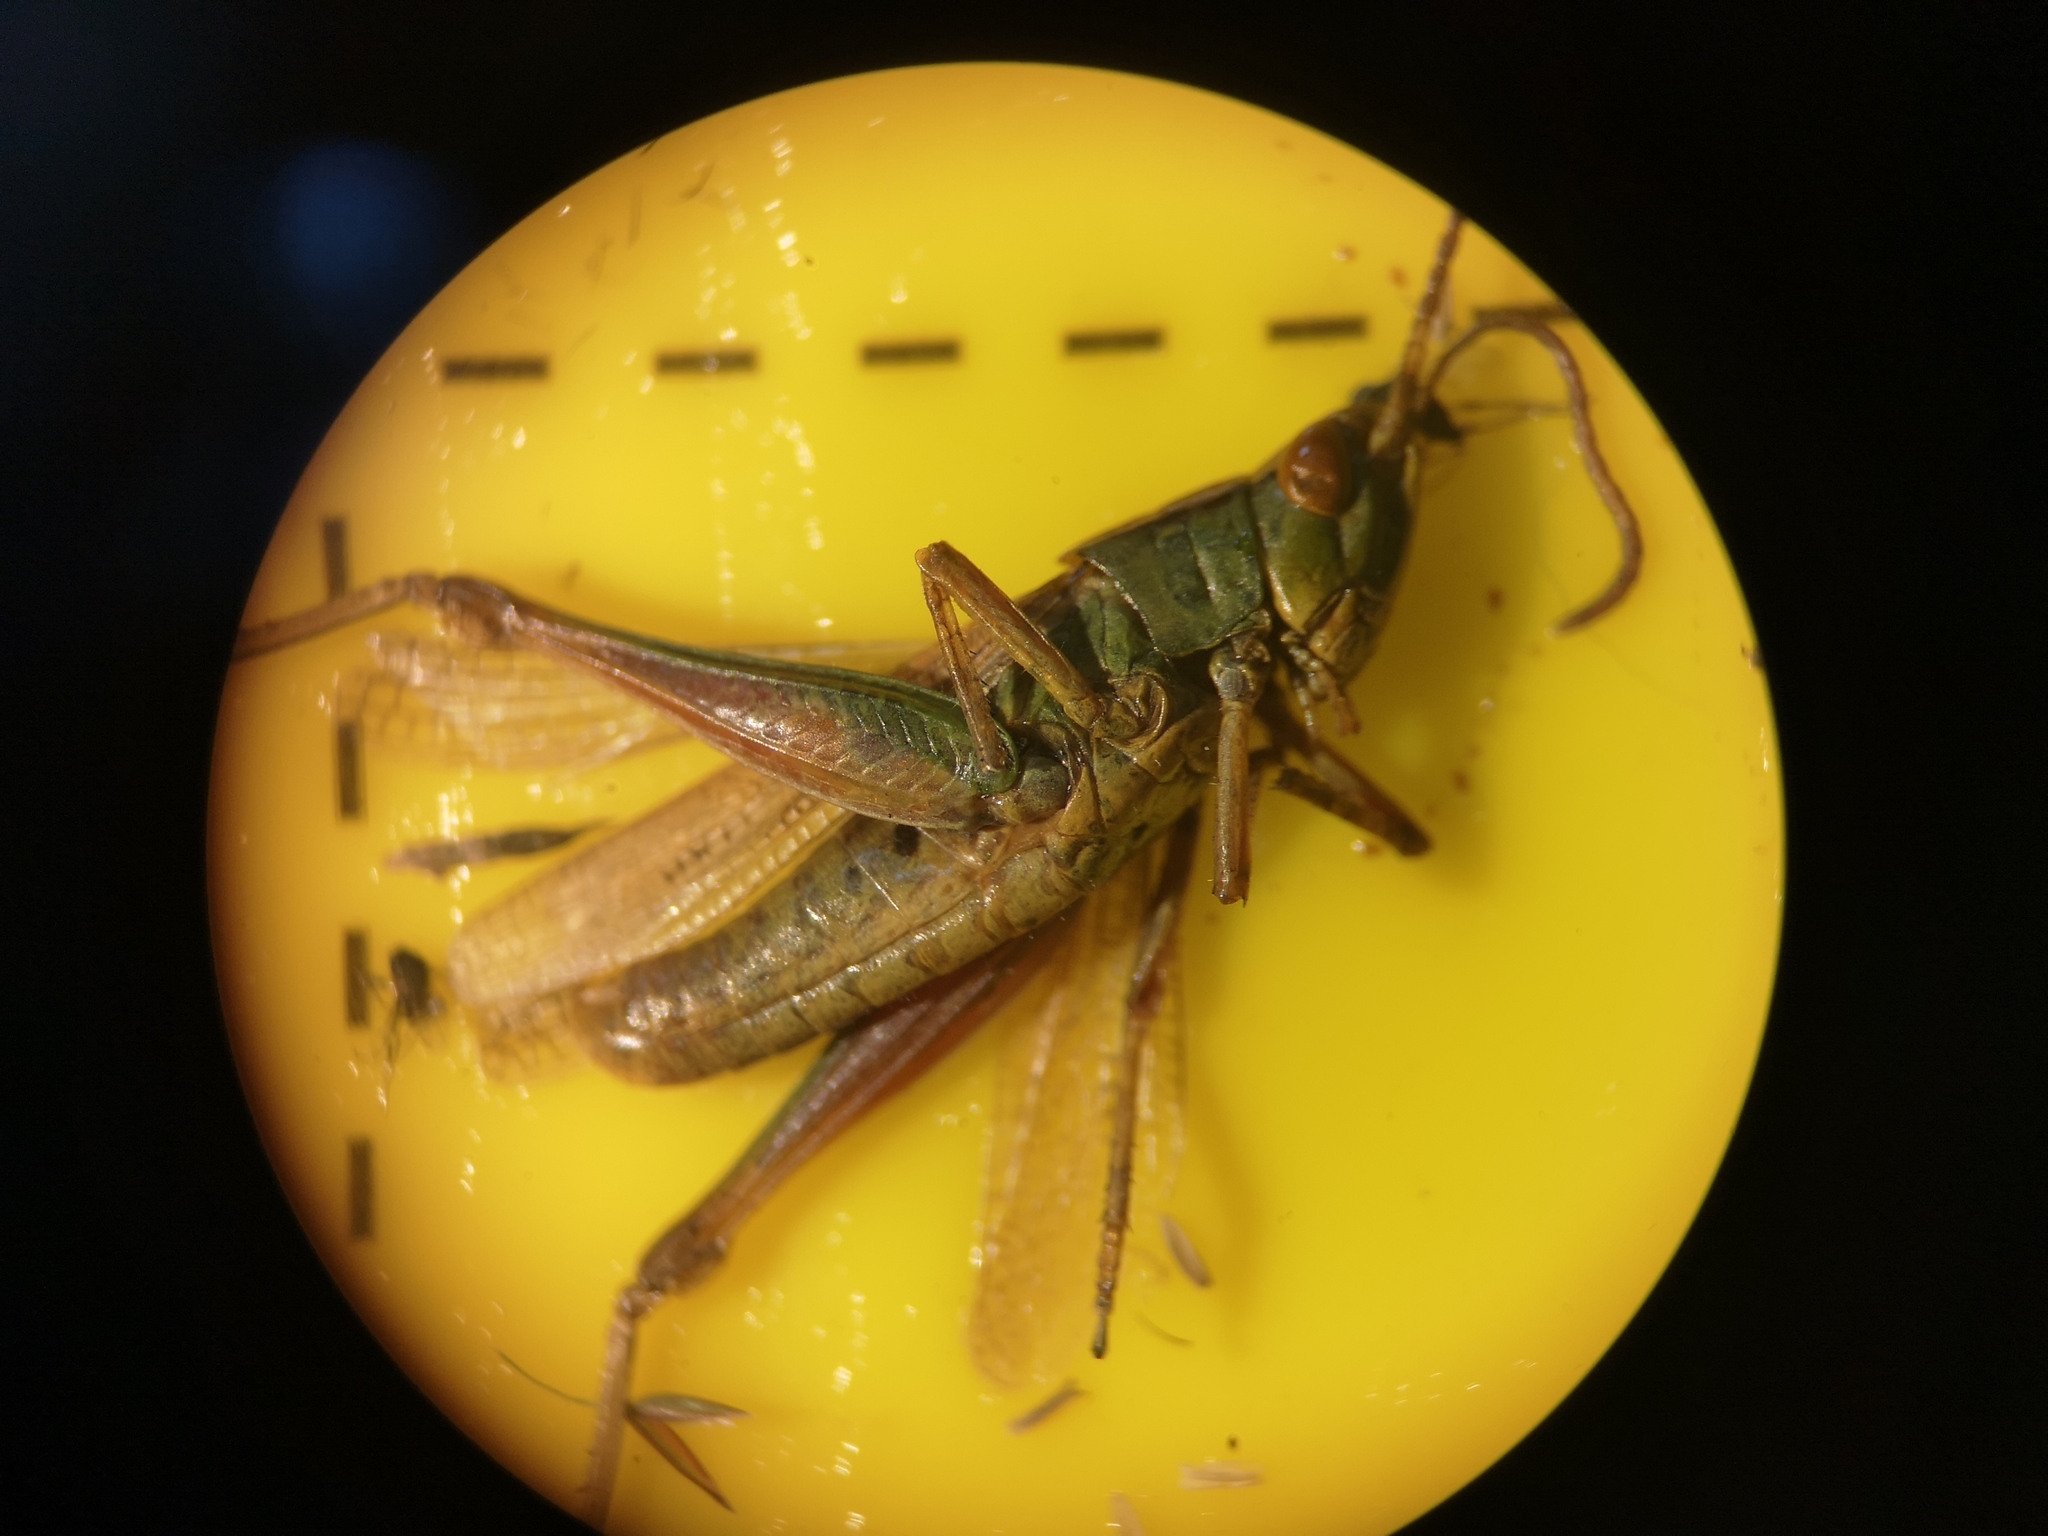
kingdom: Animalia
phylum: Arthropoda
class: Insecta
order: Orthoptera
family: Acrididae
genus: Chorthippus
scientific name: Chorthippus albomarginatus
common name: Lesser marsh grasshopper
